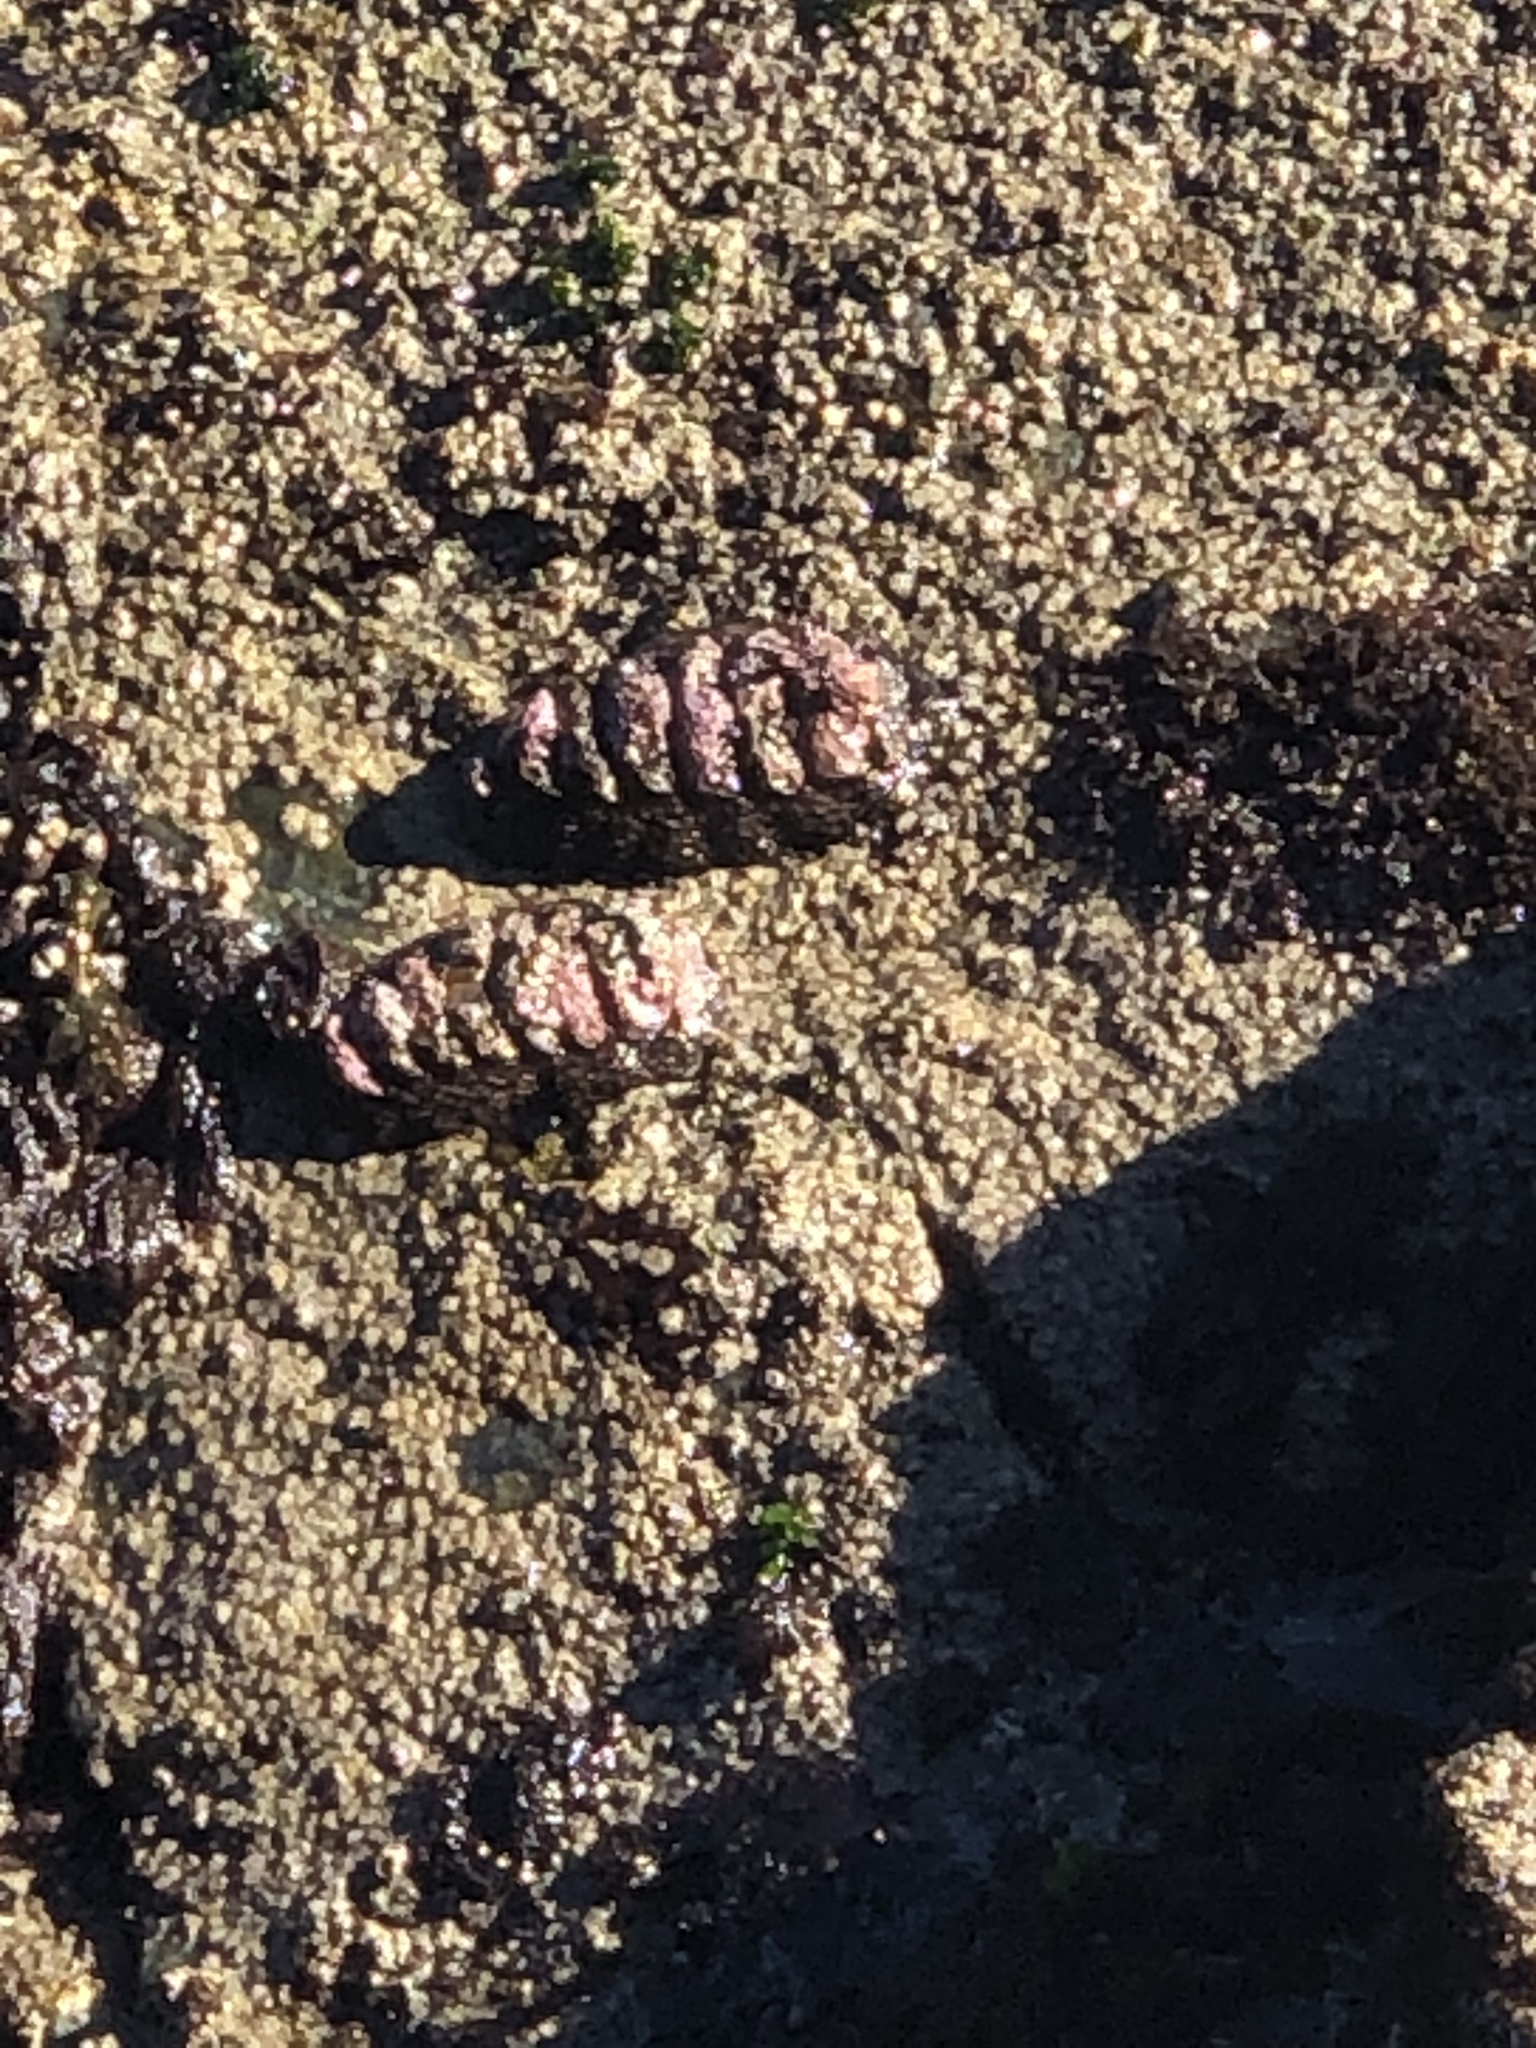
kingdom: Animalia
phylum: Mollusca
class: Polyplacophora
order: Chitonida
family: Chitonidae
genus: Enoplochiton
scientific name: Enoplochiton niger
